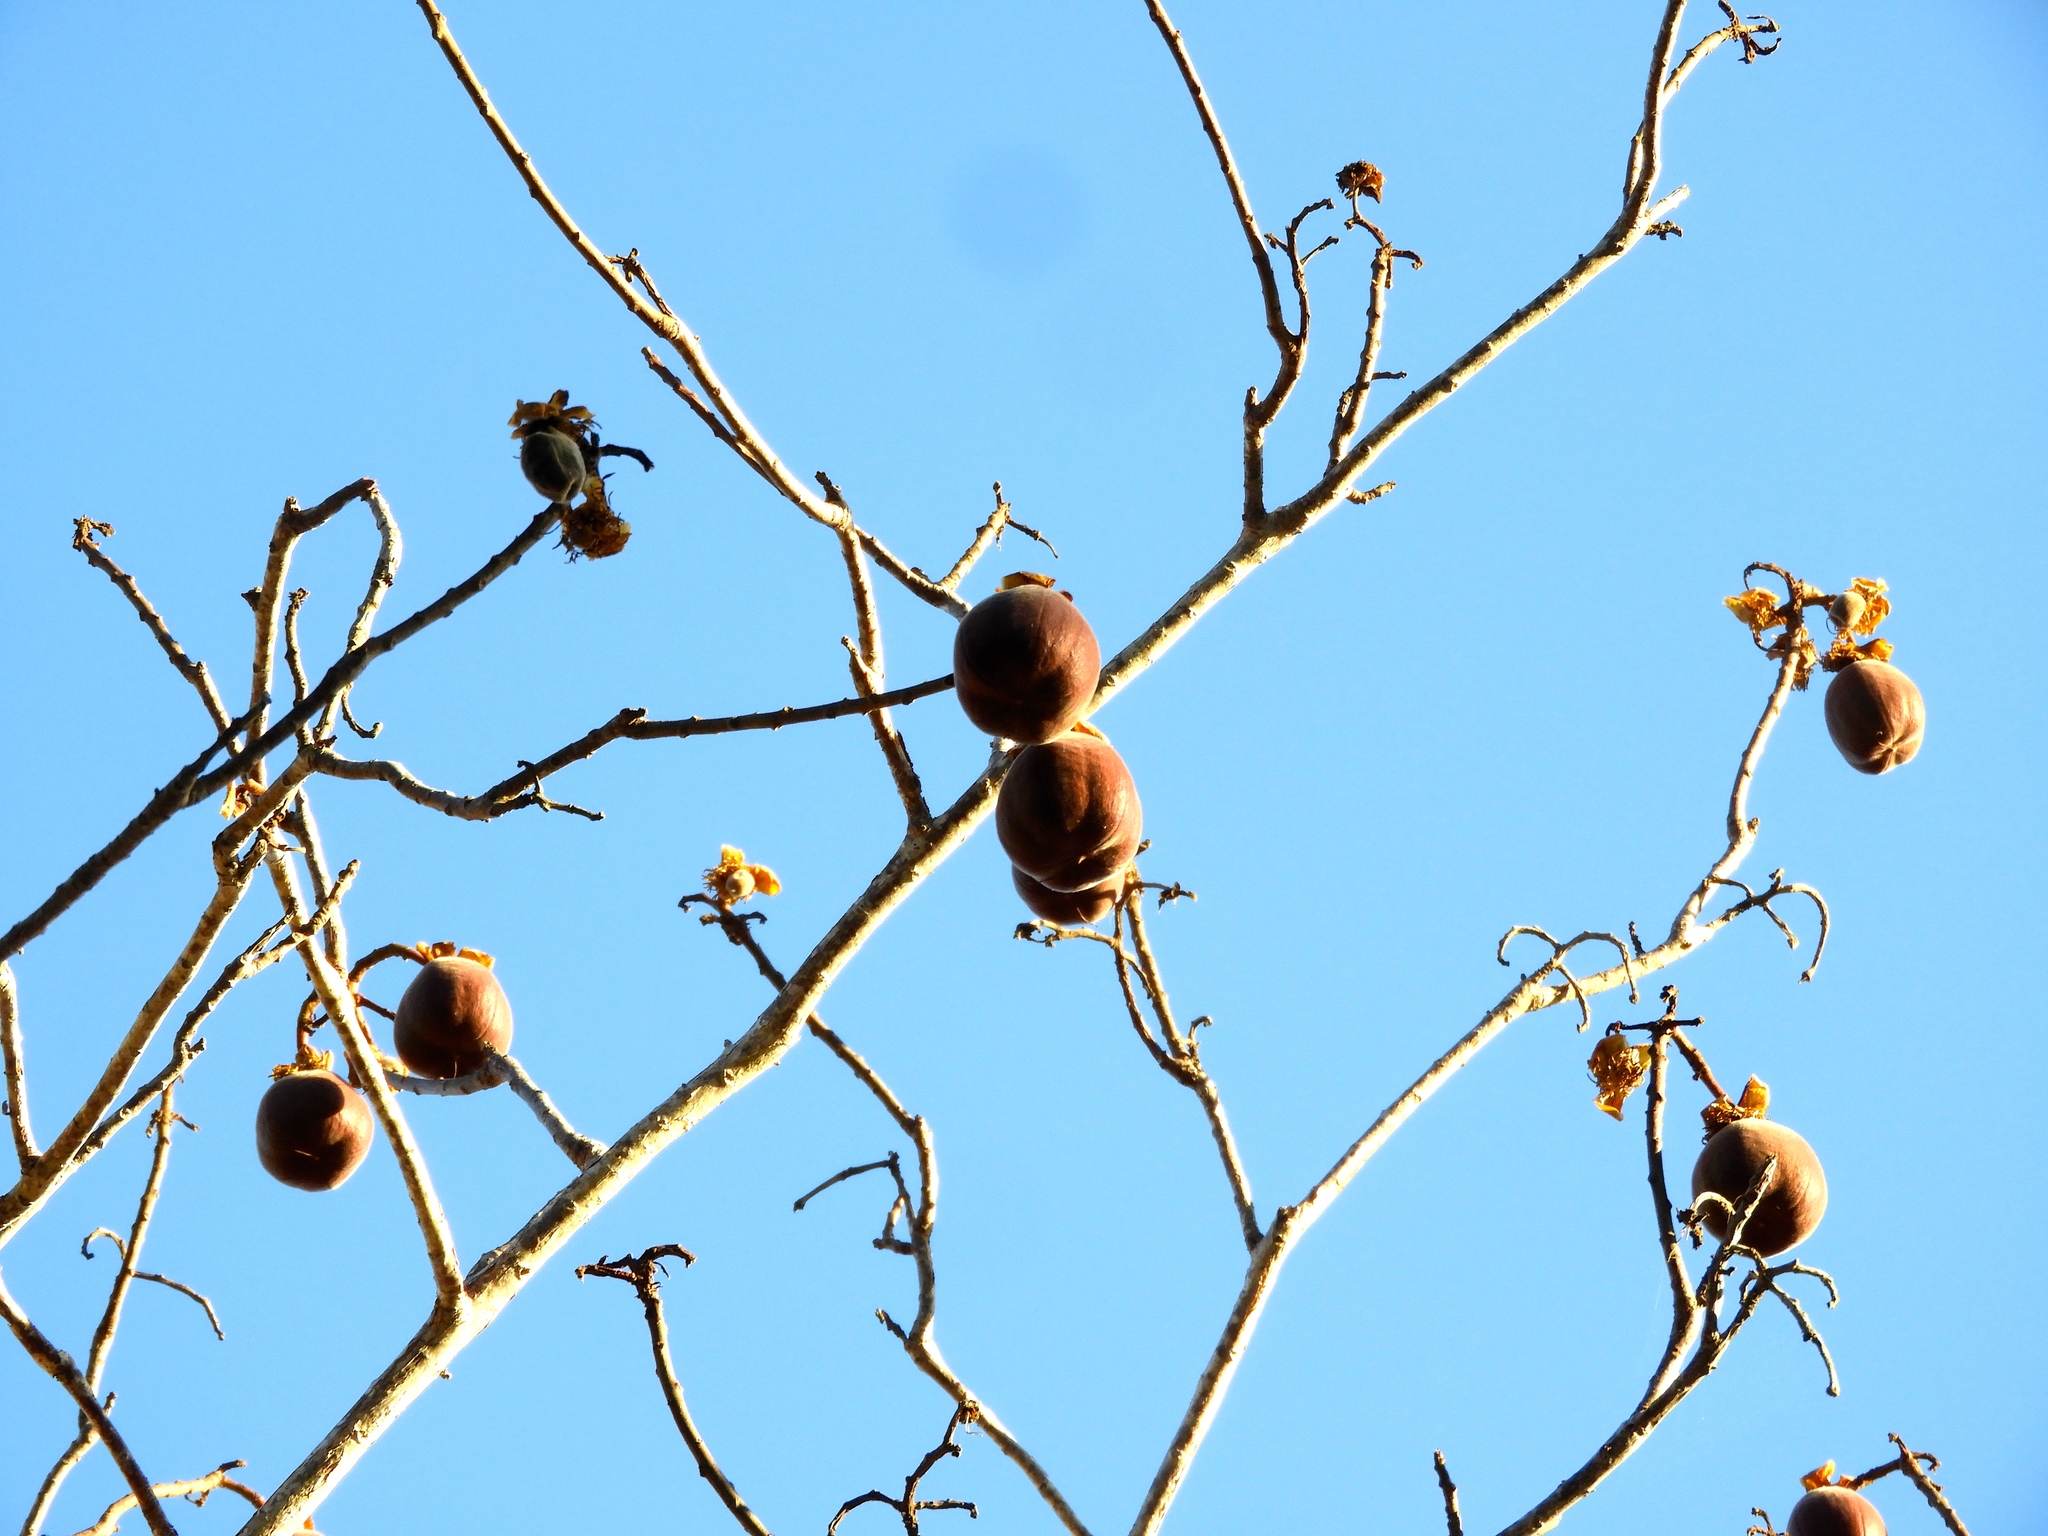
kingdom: Plantae
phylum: Tracheophyta
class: Magnoliopsida
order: Malvales
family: Cochlospermaceae
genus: Cochlospermum
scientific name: Cochlospermum vitifolium
